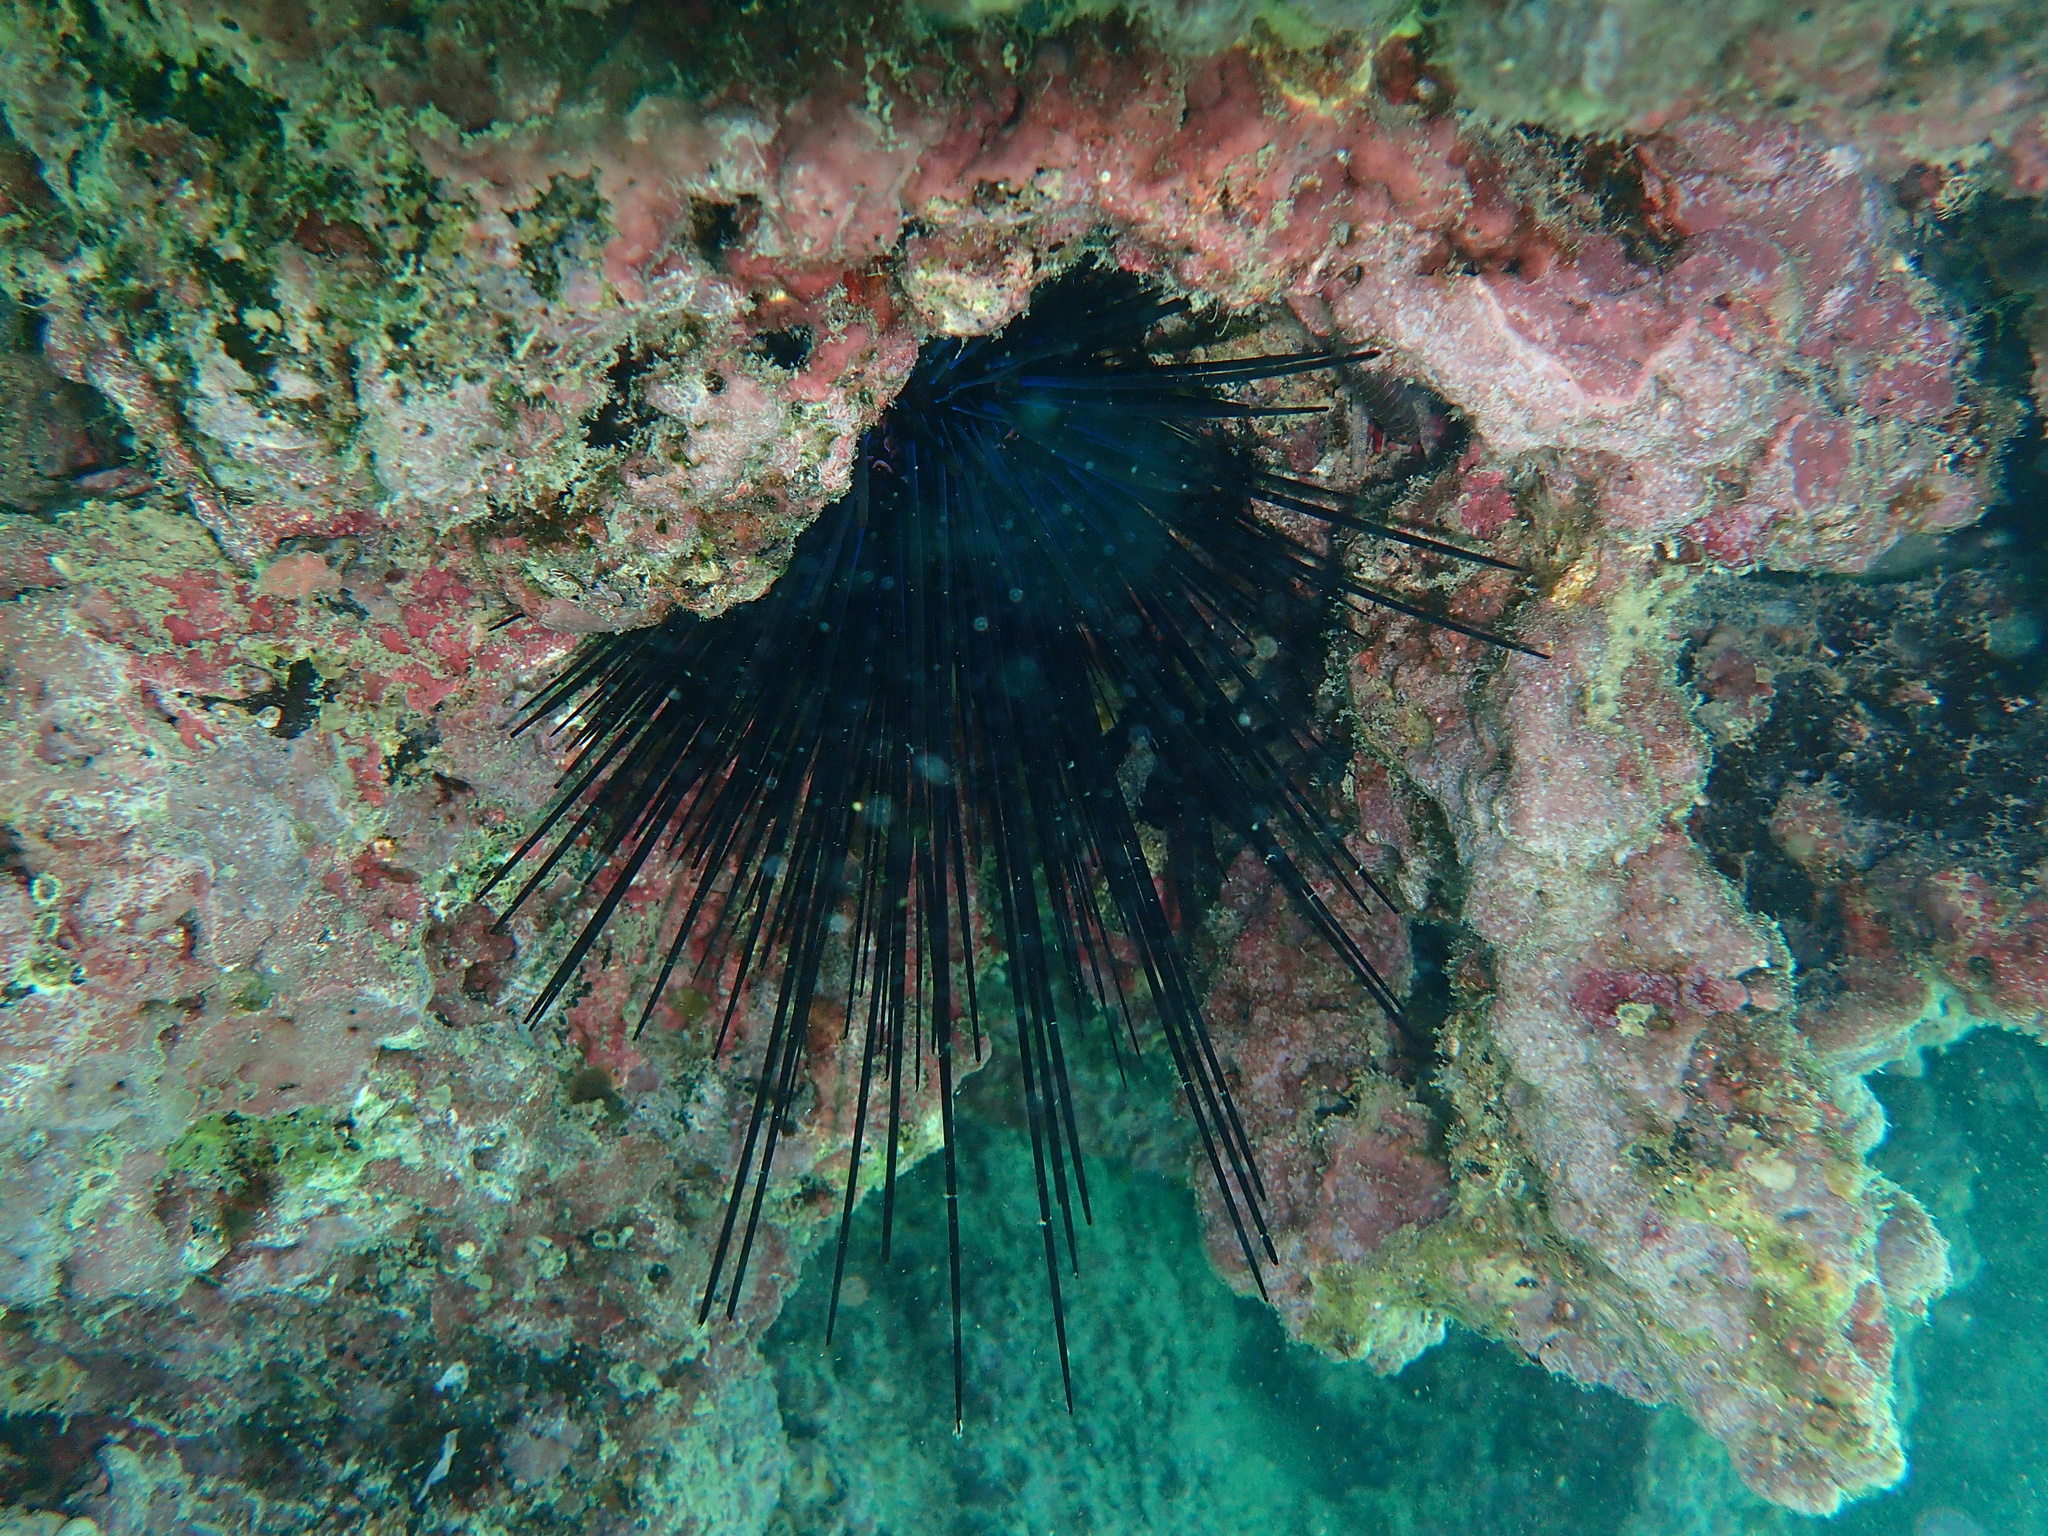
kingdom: Animalia
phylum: Echinodermata
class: Echinoidea
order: Diadematoida
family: Diadematidae
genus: Diadema
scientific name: Diadema mexicanum
